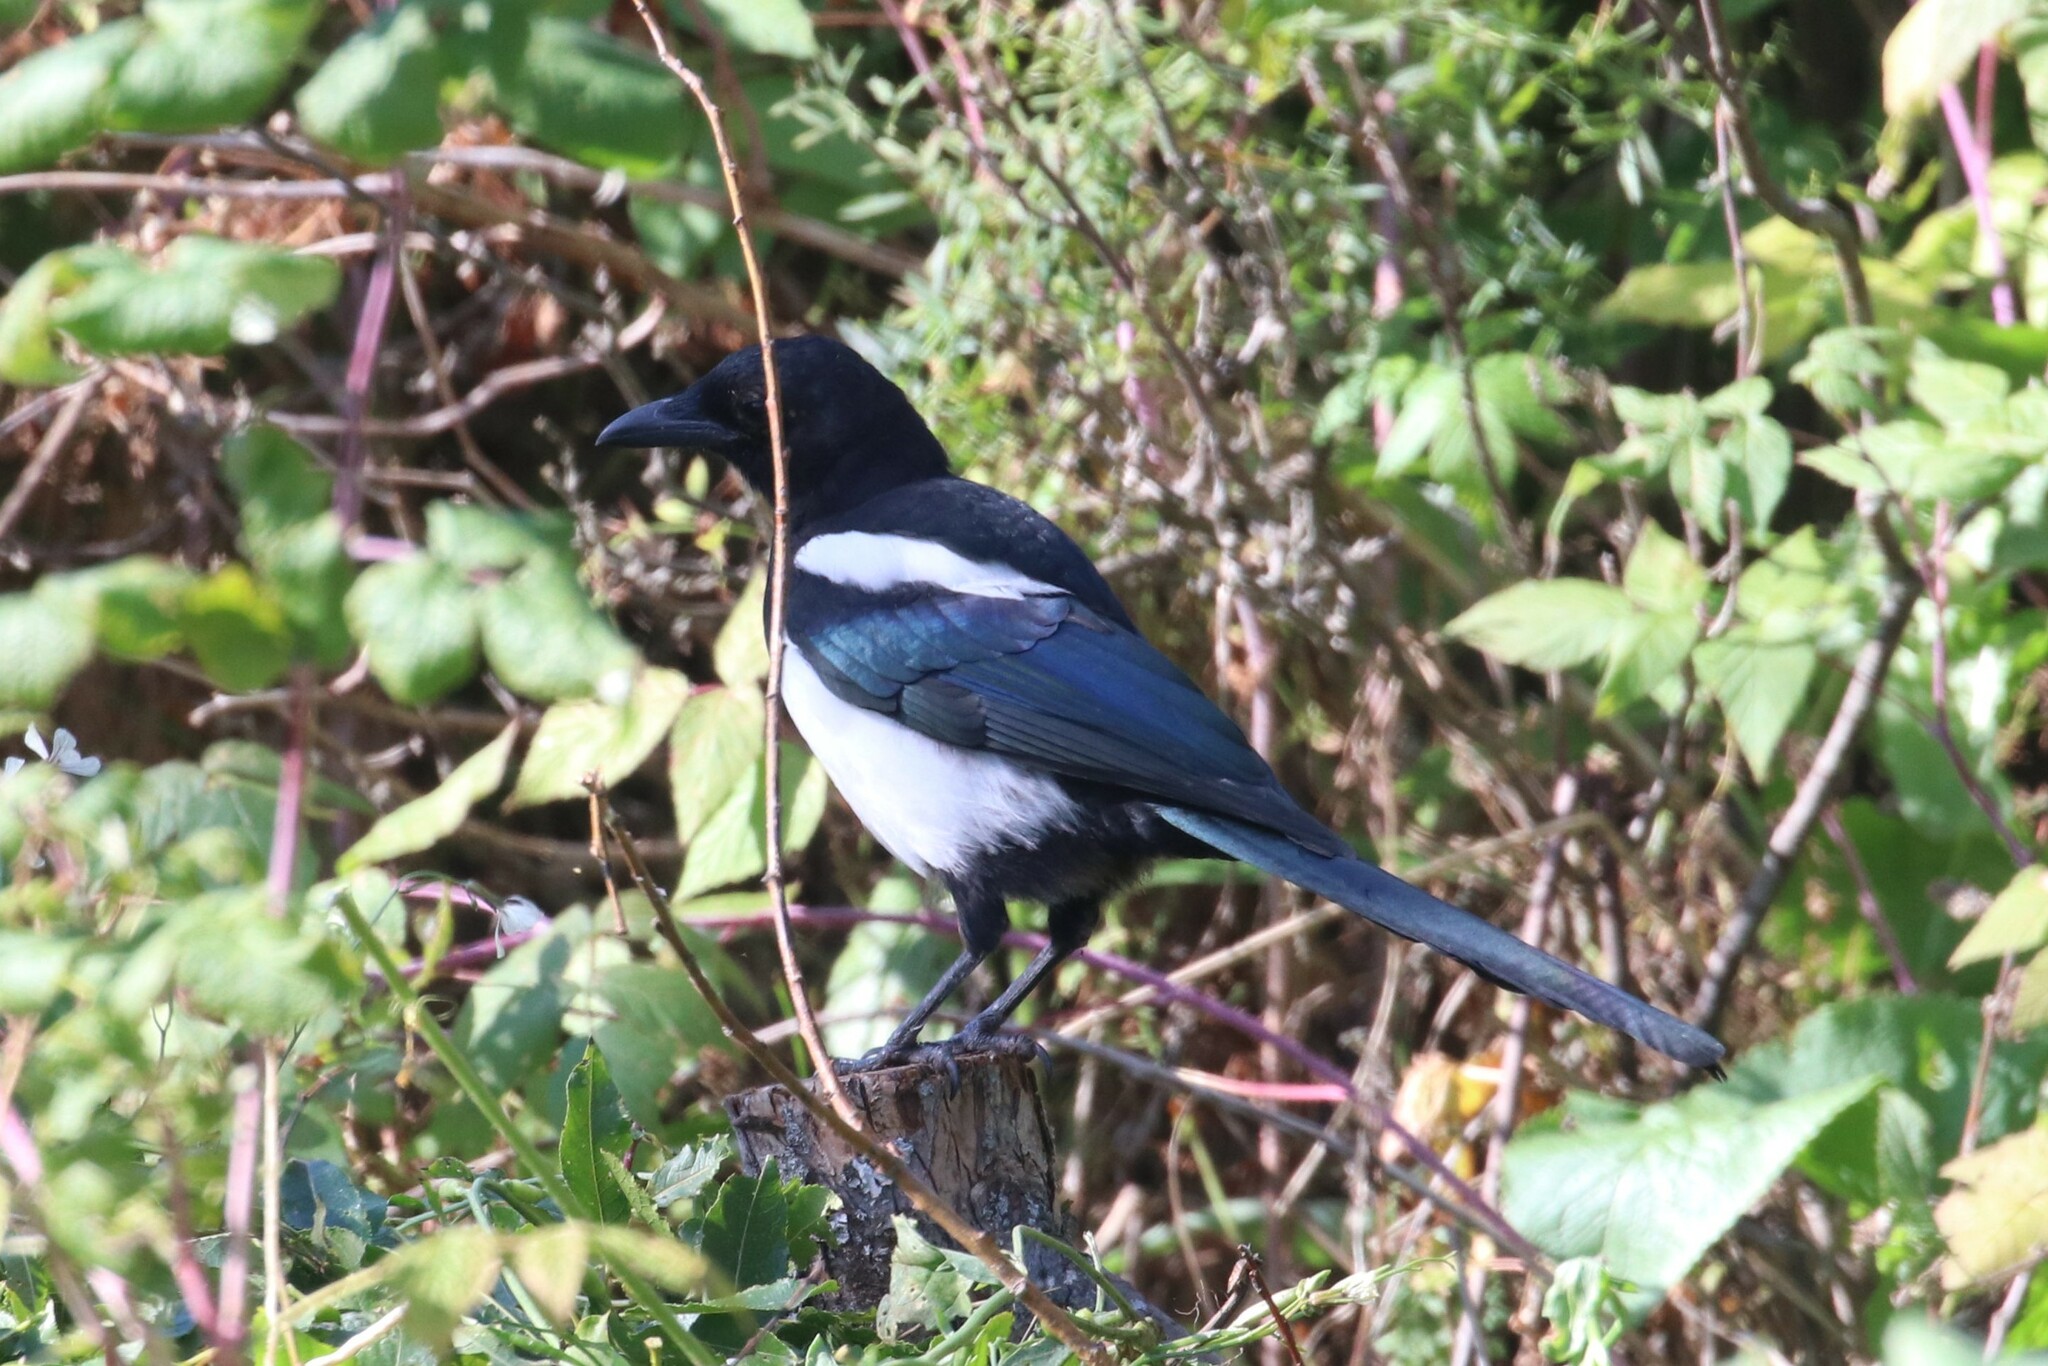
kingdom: Animalia
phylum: Chordata
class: Aves
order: Passeriformes
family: Corvidae
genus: Pica
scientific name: Pica pica
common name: Eurasian magpie
